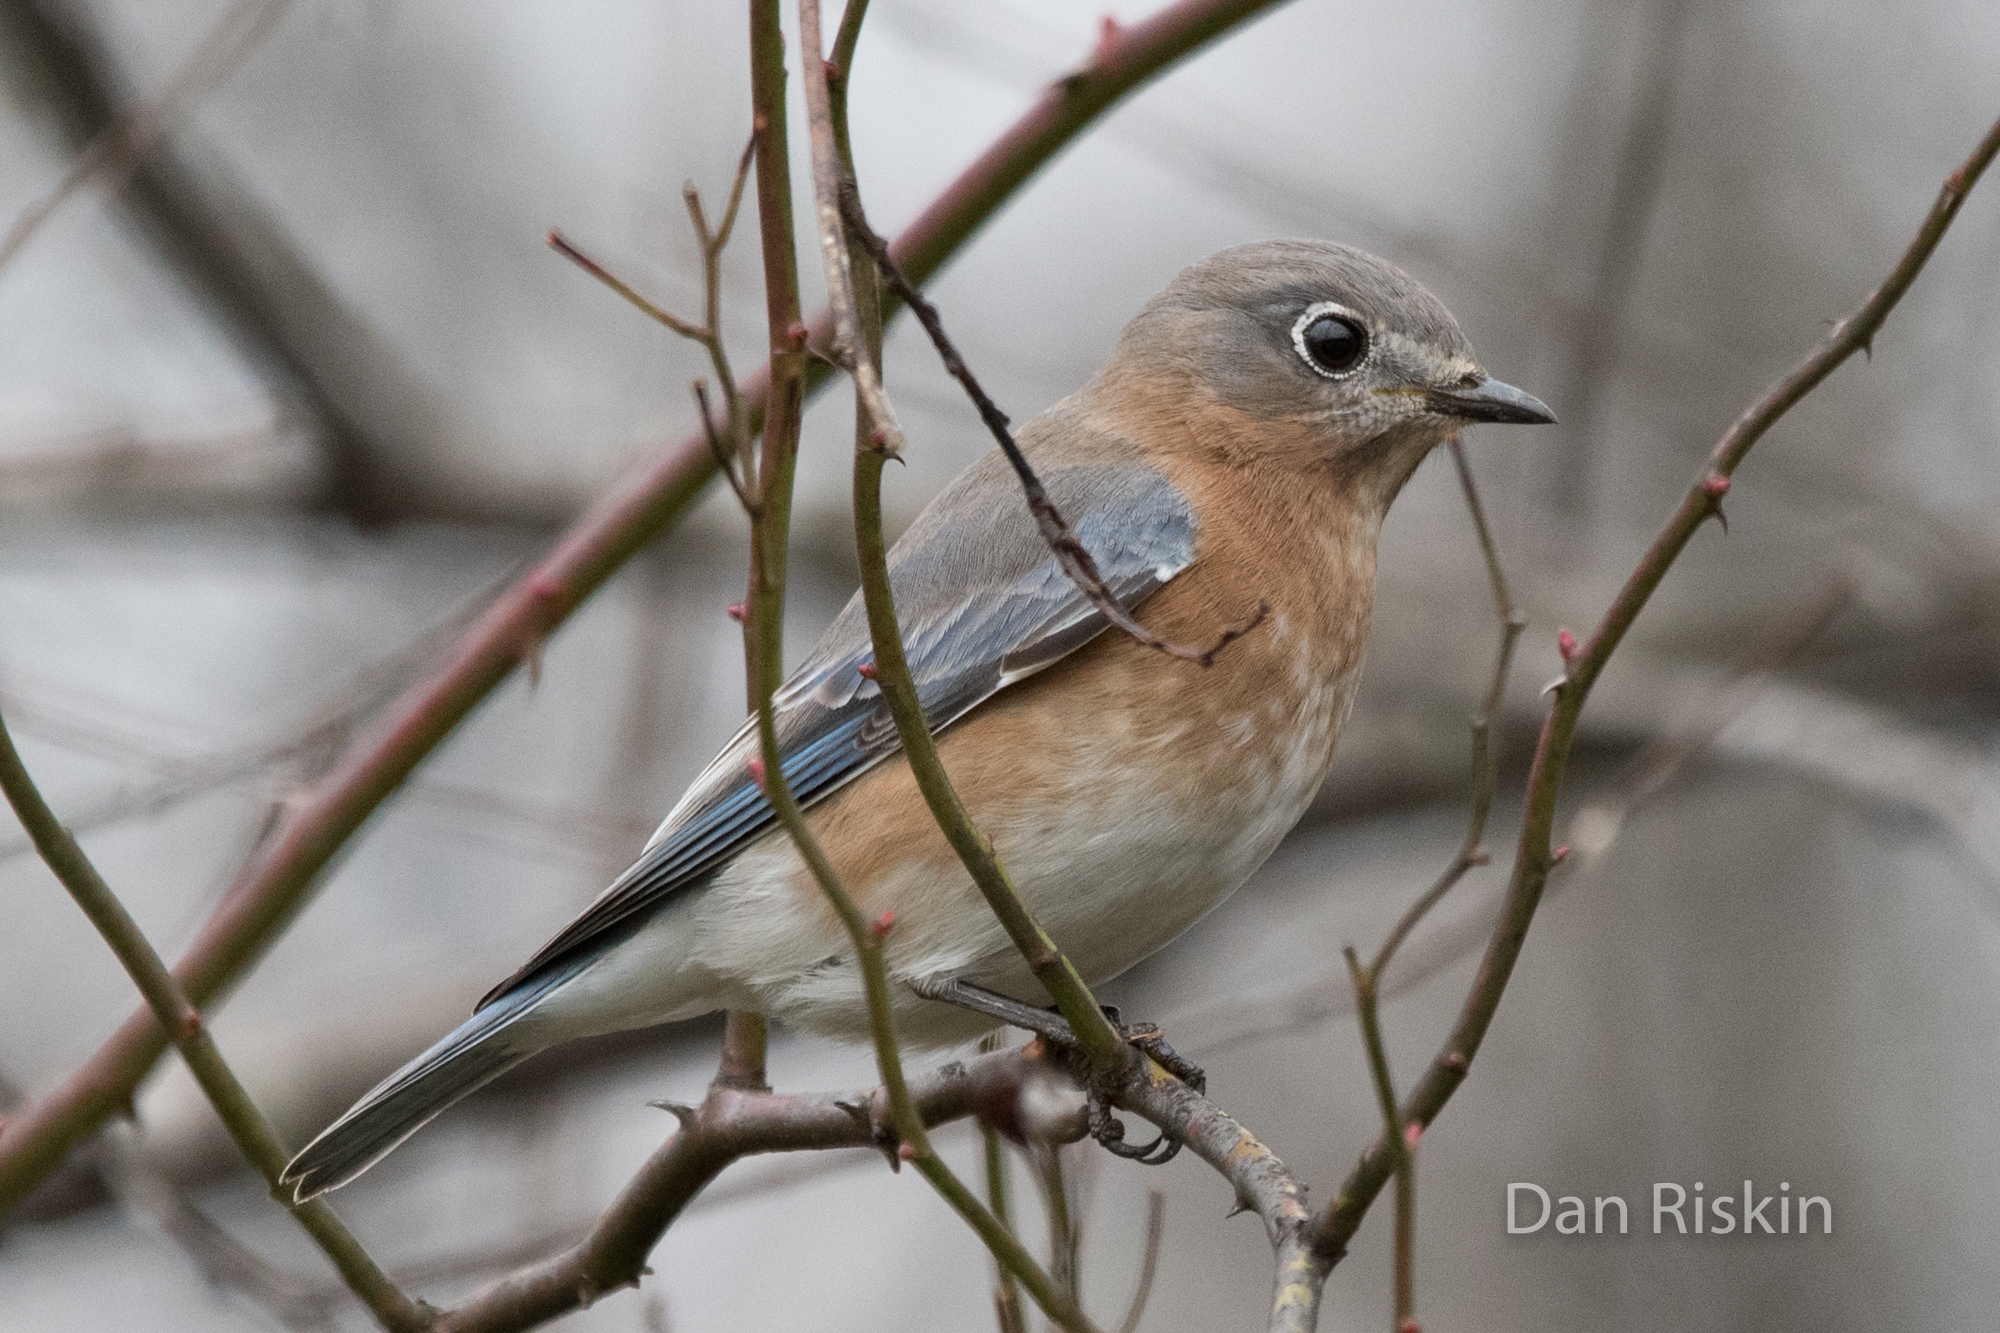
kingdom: Animalia
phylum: Chordata
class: Aves
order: Passeriformes
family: Turdidae
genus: Sialia
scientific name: Sialia sialis
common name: Eastern bluebird
